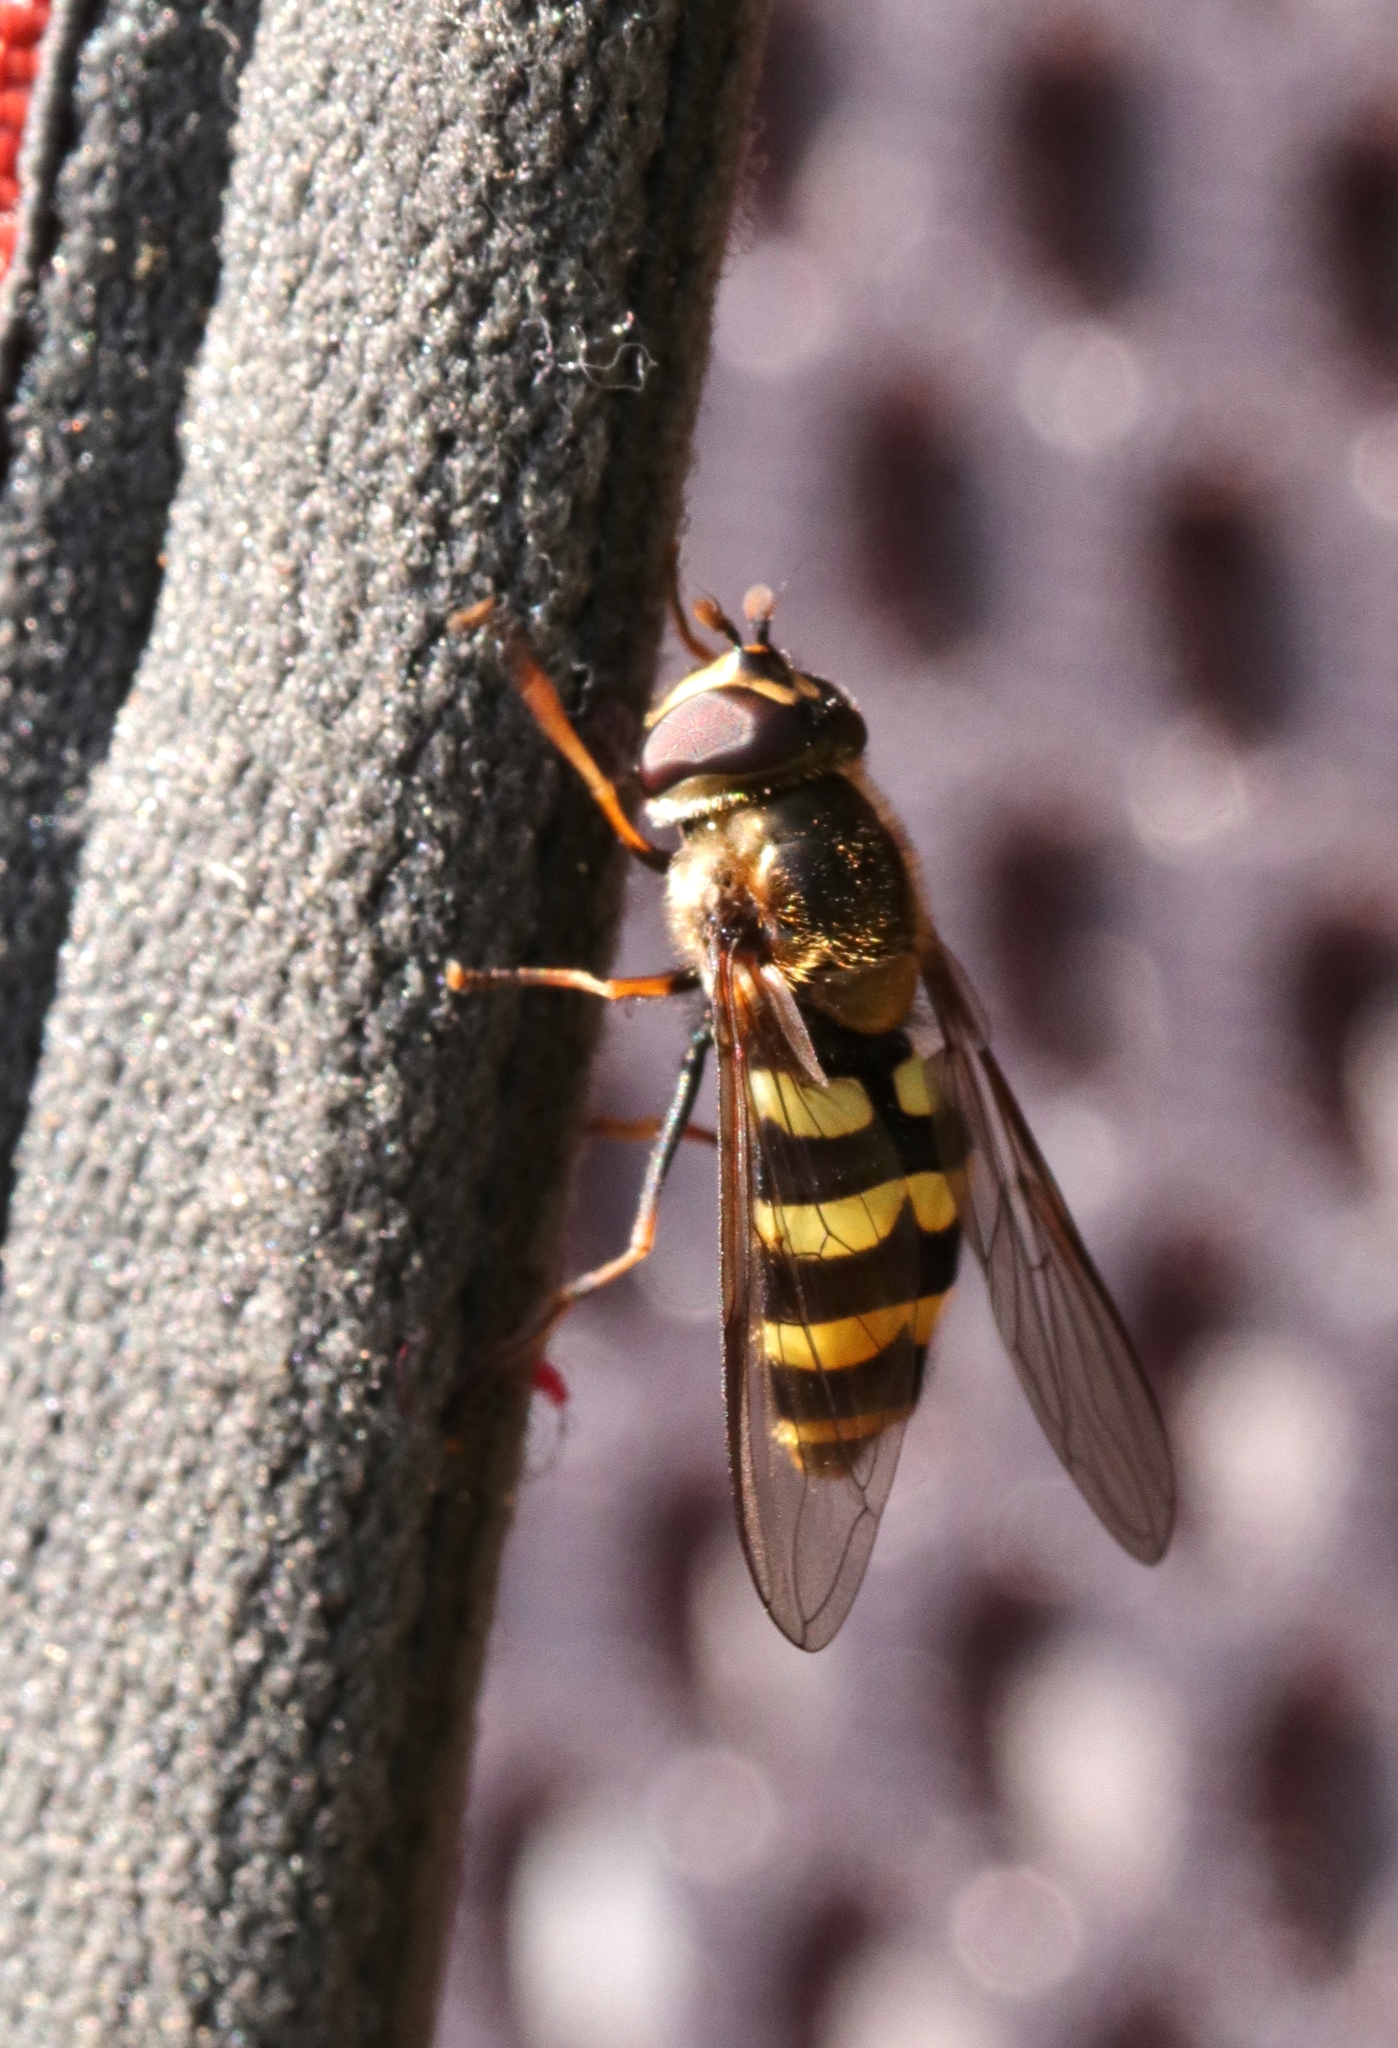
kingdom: Animalia
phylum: Arthropoda
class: Insecta
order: Diptera
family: Syrphidae
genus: Megasyrphus
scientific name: Megasyrphus laxus
